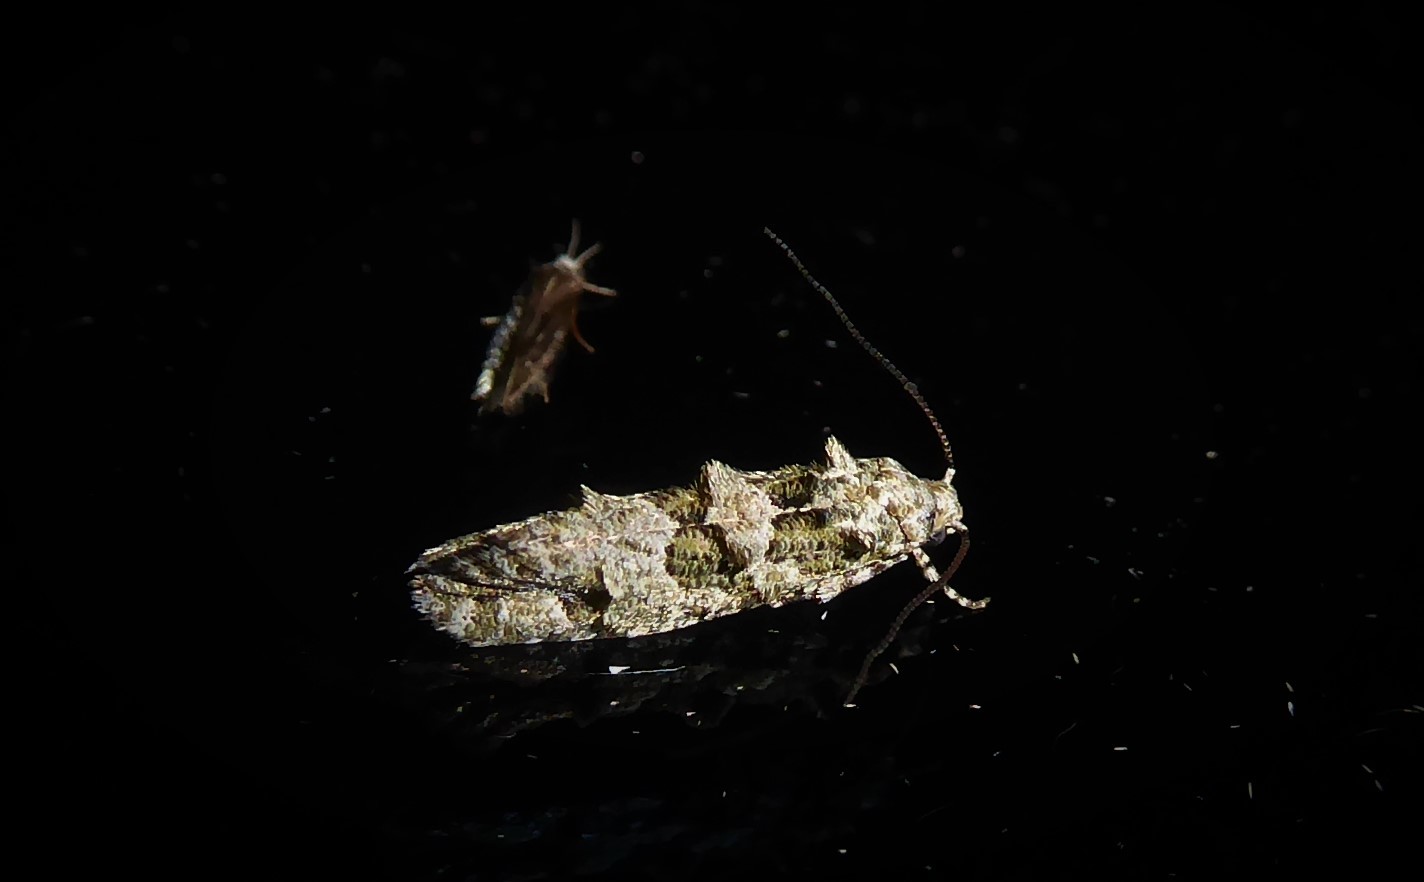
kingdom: Animalia
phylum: Arthropoda
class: Insecta
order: Lepidoptera
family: Tineidae
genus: Lysiphragma
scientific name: Lysiphragma howesii
